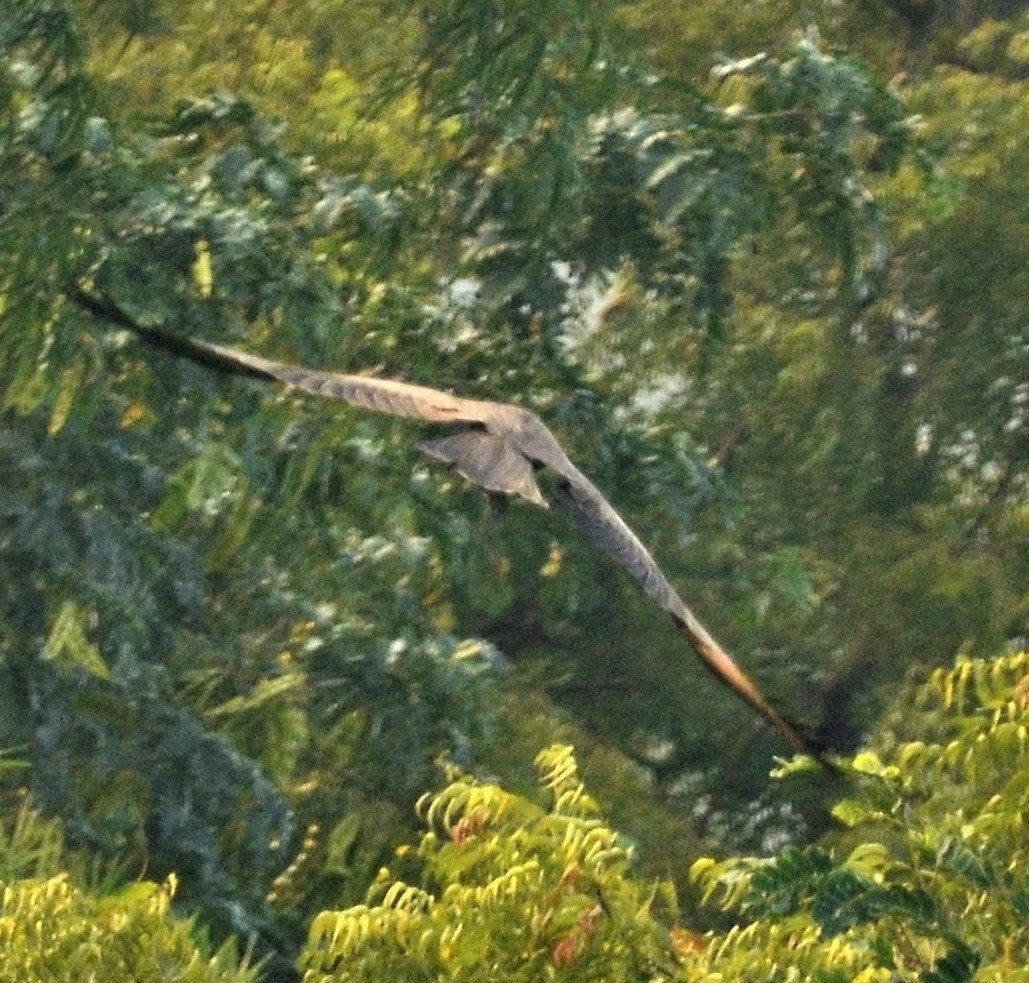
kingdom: Animalia
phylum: Chordata
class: Aves
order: Accipitriformes
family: Accipitridae
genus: Milvus
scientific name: Milvus migrans
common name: Black kite
